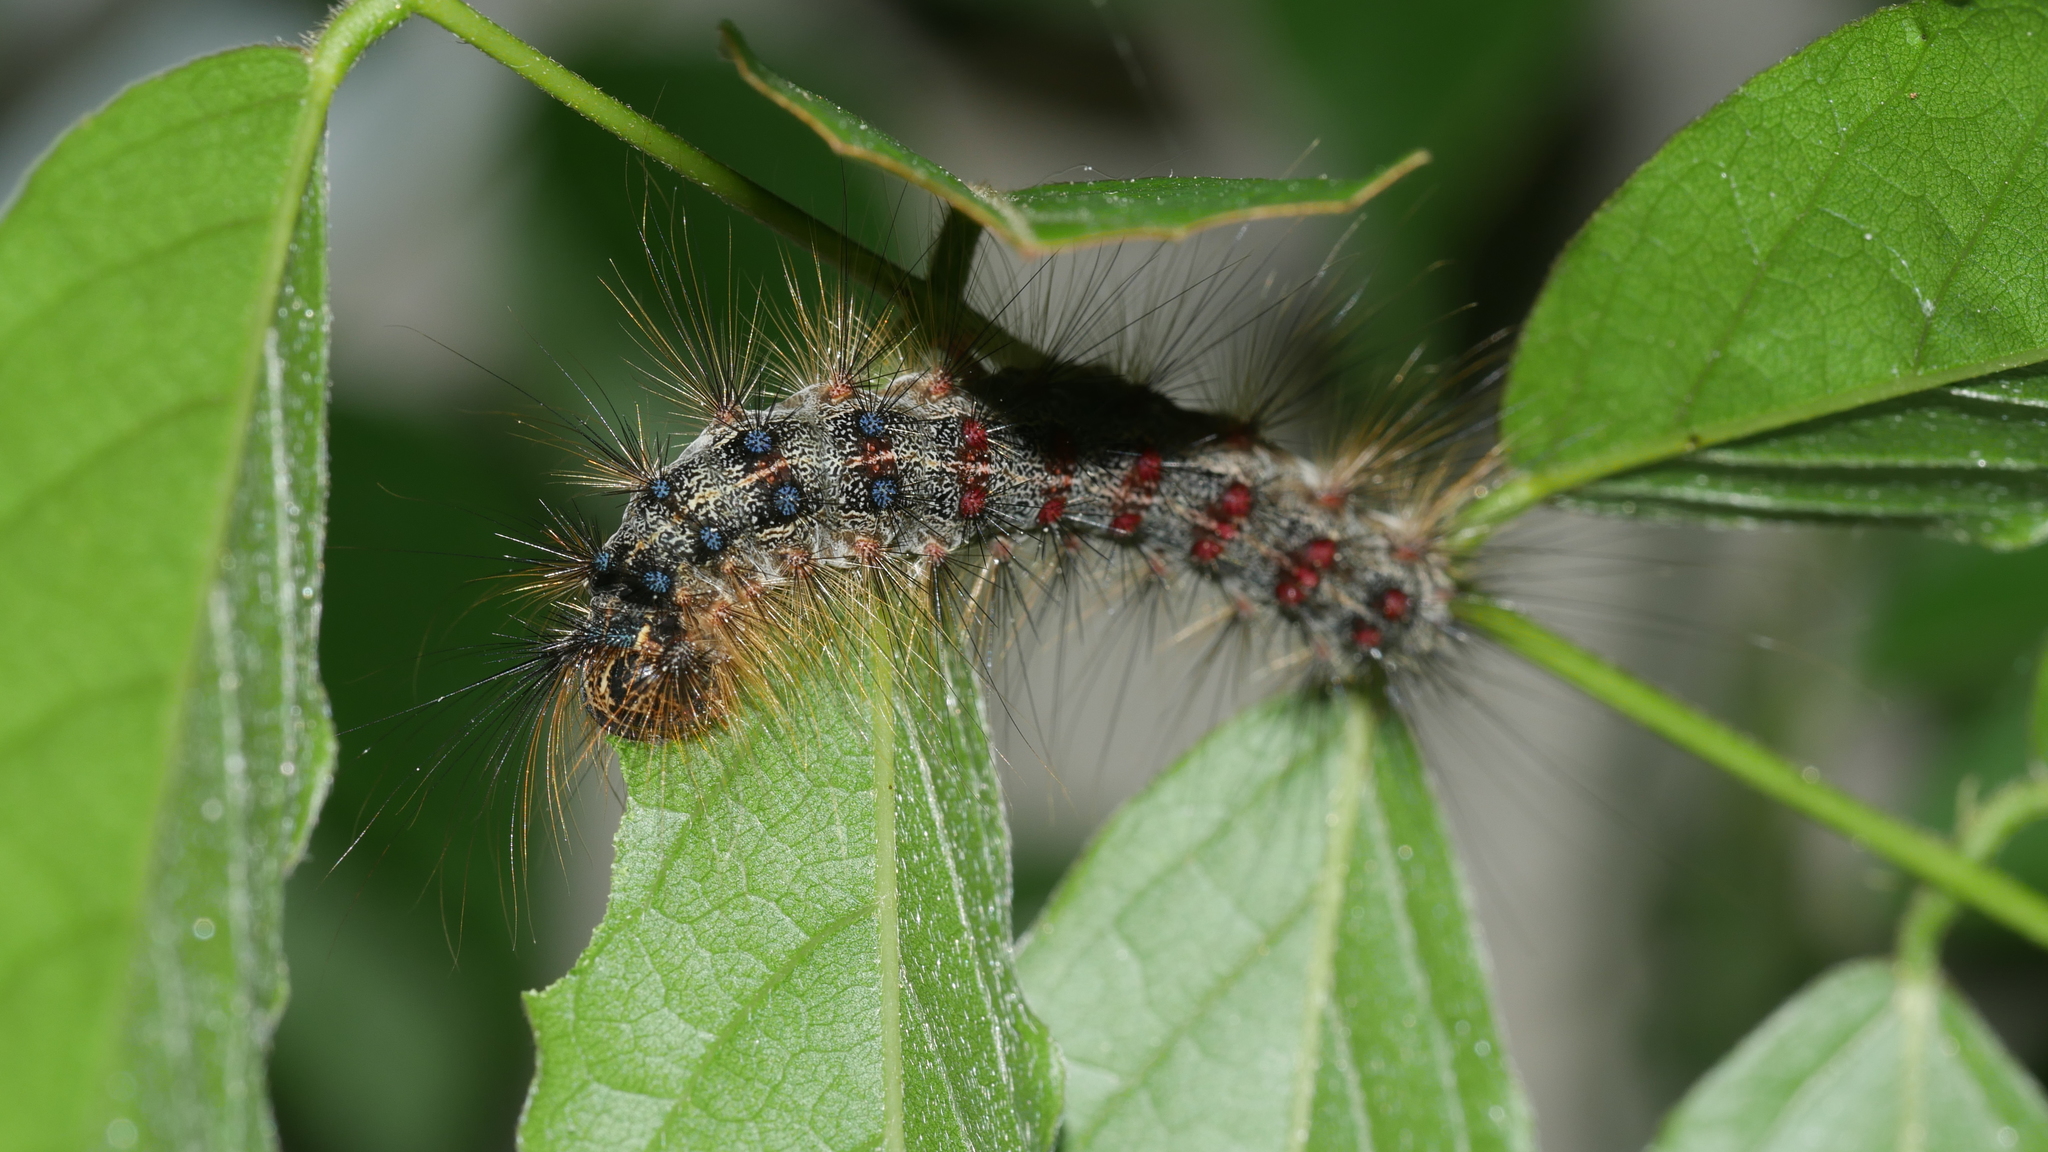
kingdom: Animalia
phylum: Arthropoda
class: Insecta
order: Lepidoptera
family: Erebidae
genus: Lymantria
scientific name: Lymantria dispar
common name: Gypsy moth
